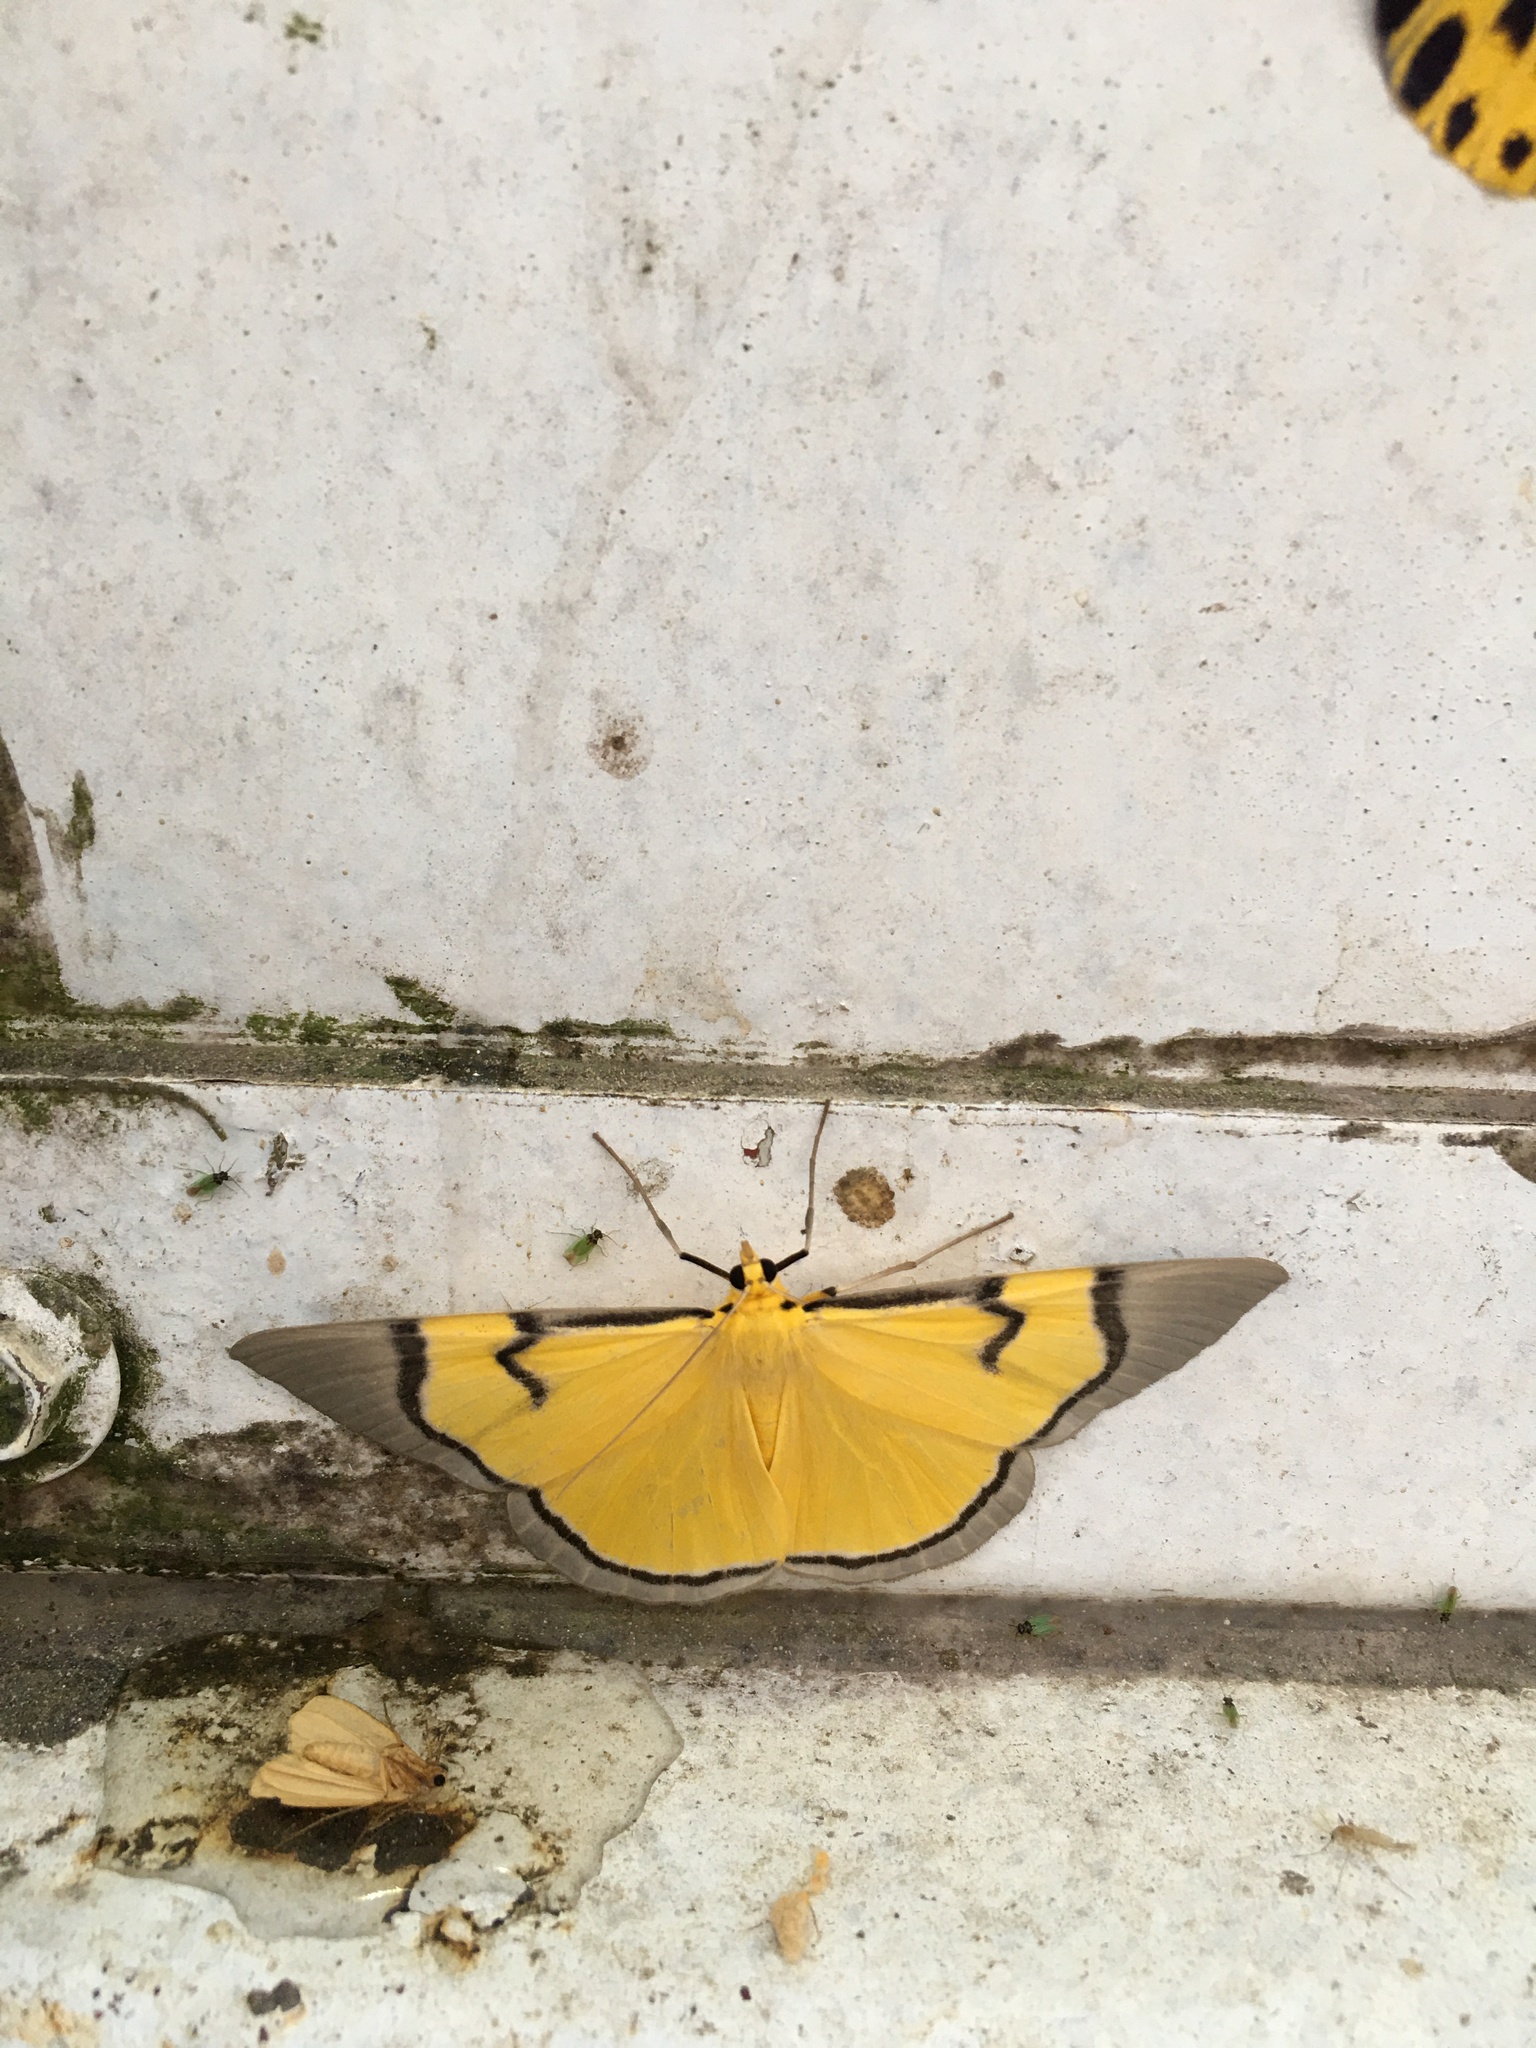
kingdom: Animalia
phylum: Arthropoda
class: Insecta
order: Lepidoptera
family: Geometridae
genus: Celerena
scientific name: Celerena signata
